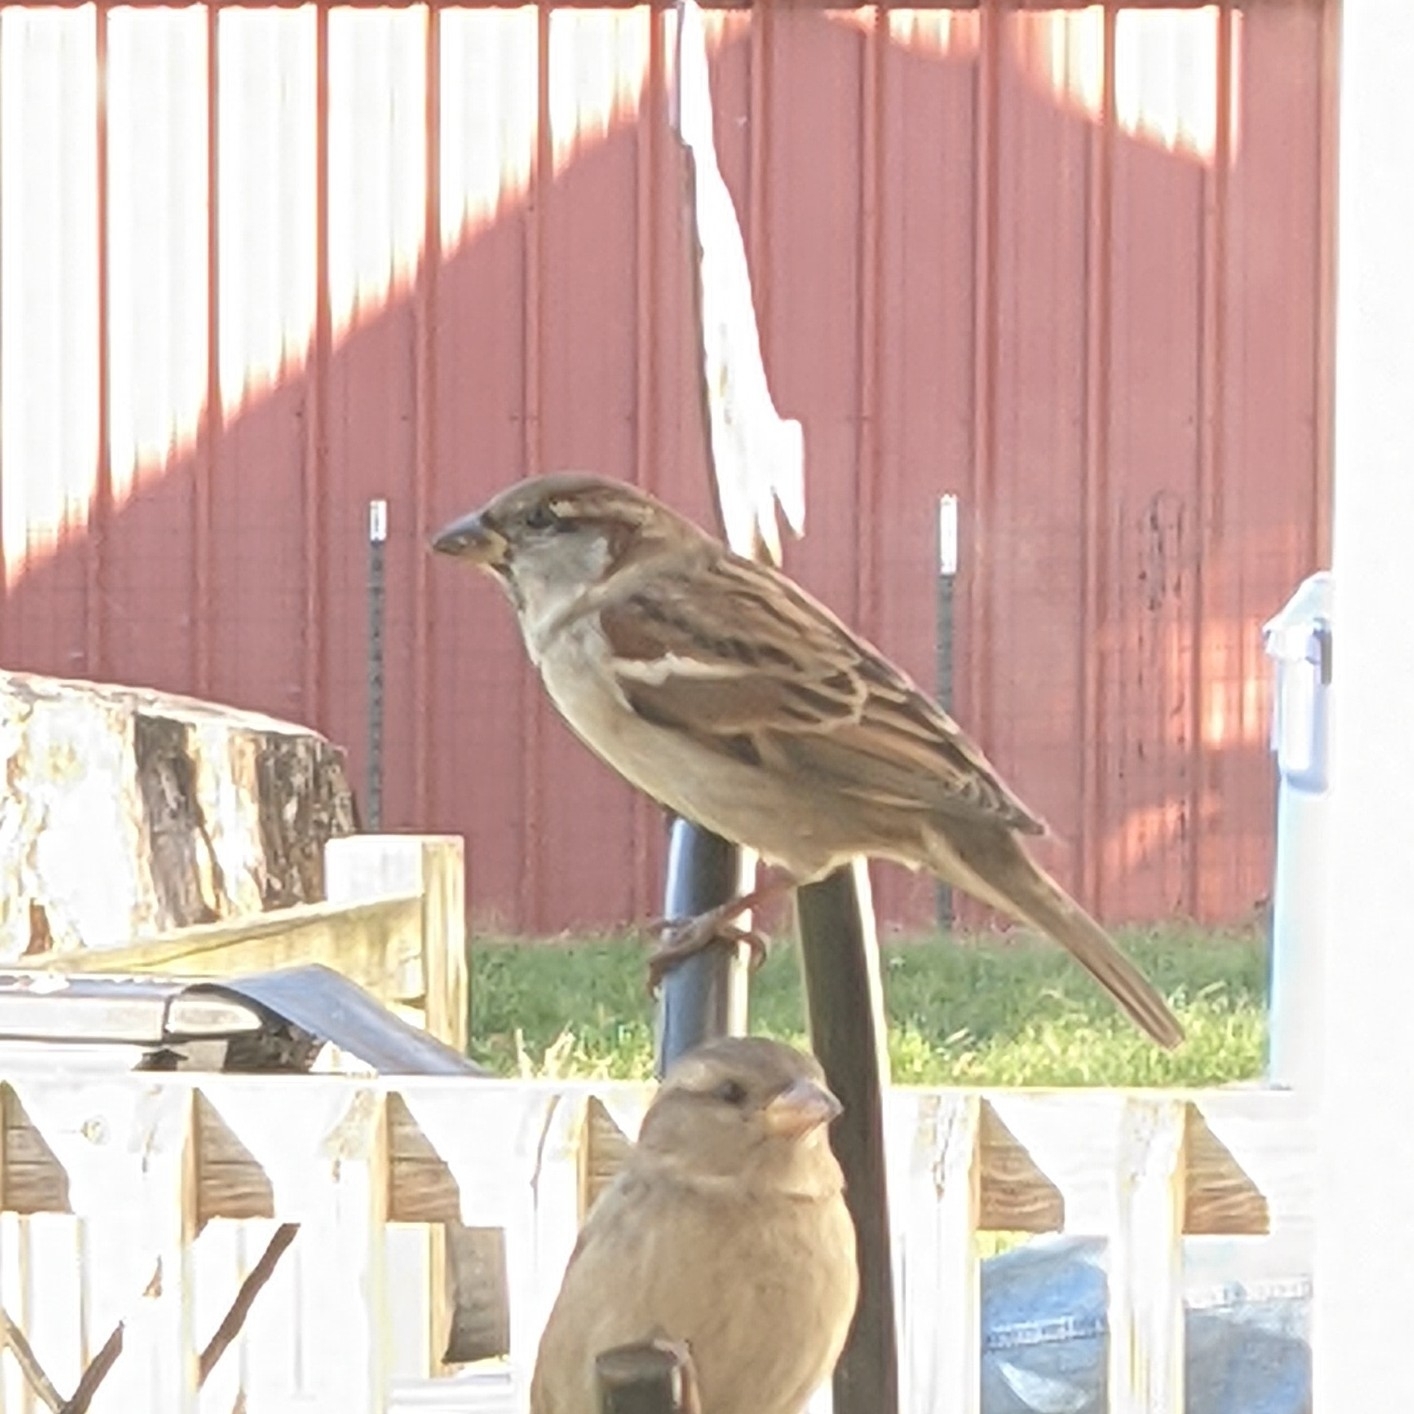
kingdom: Animalia
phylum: Chordata
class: Aves
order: Passeriformes
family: Passeridae
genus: Passer
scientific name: Passer domesticus
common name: House sparrow
